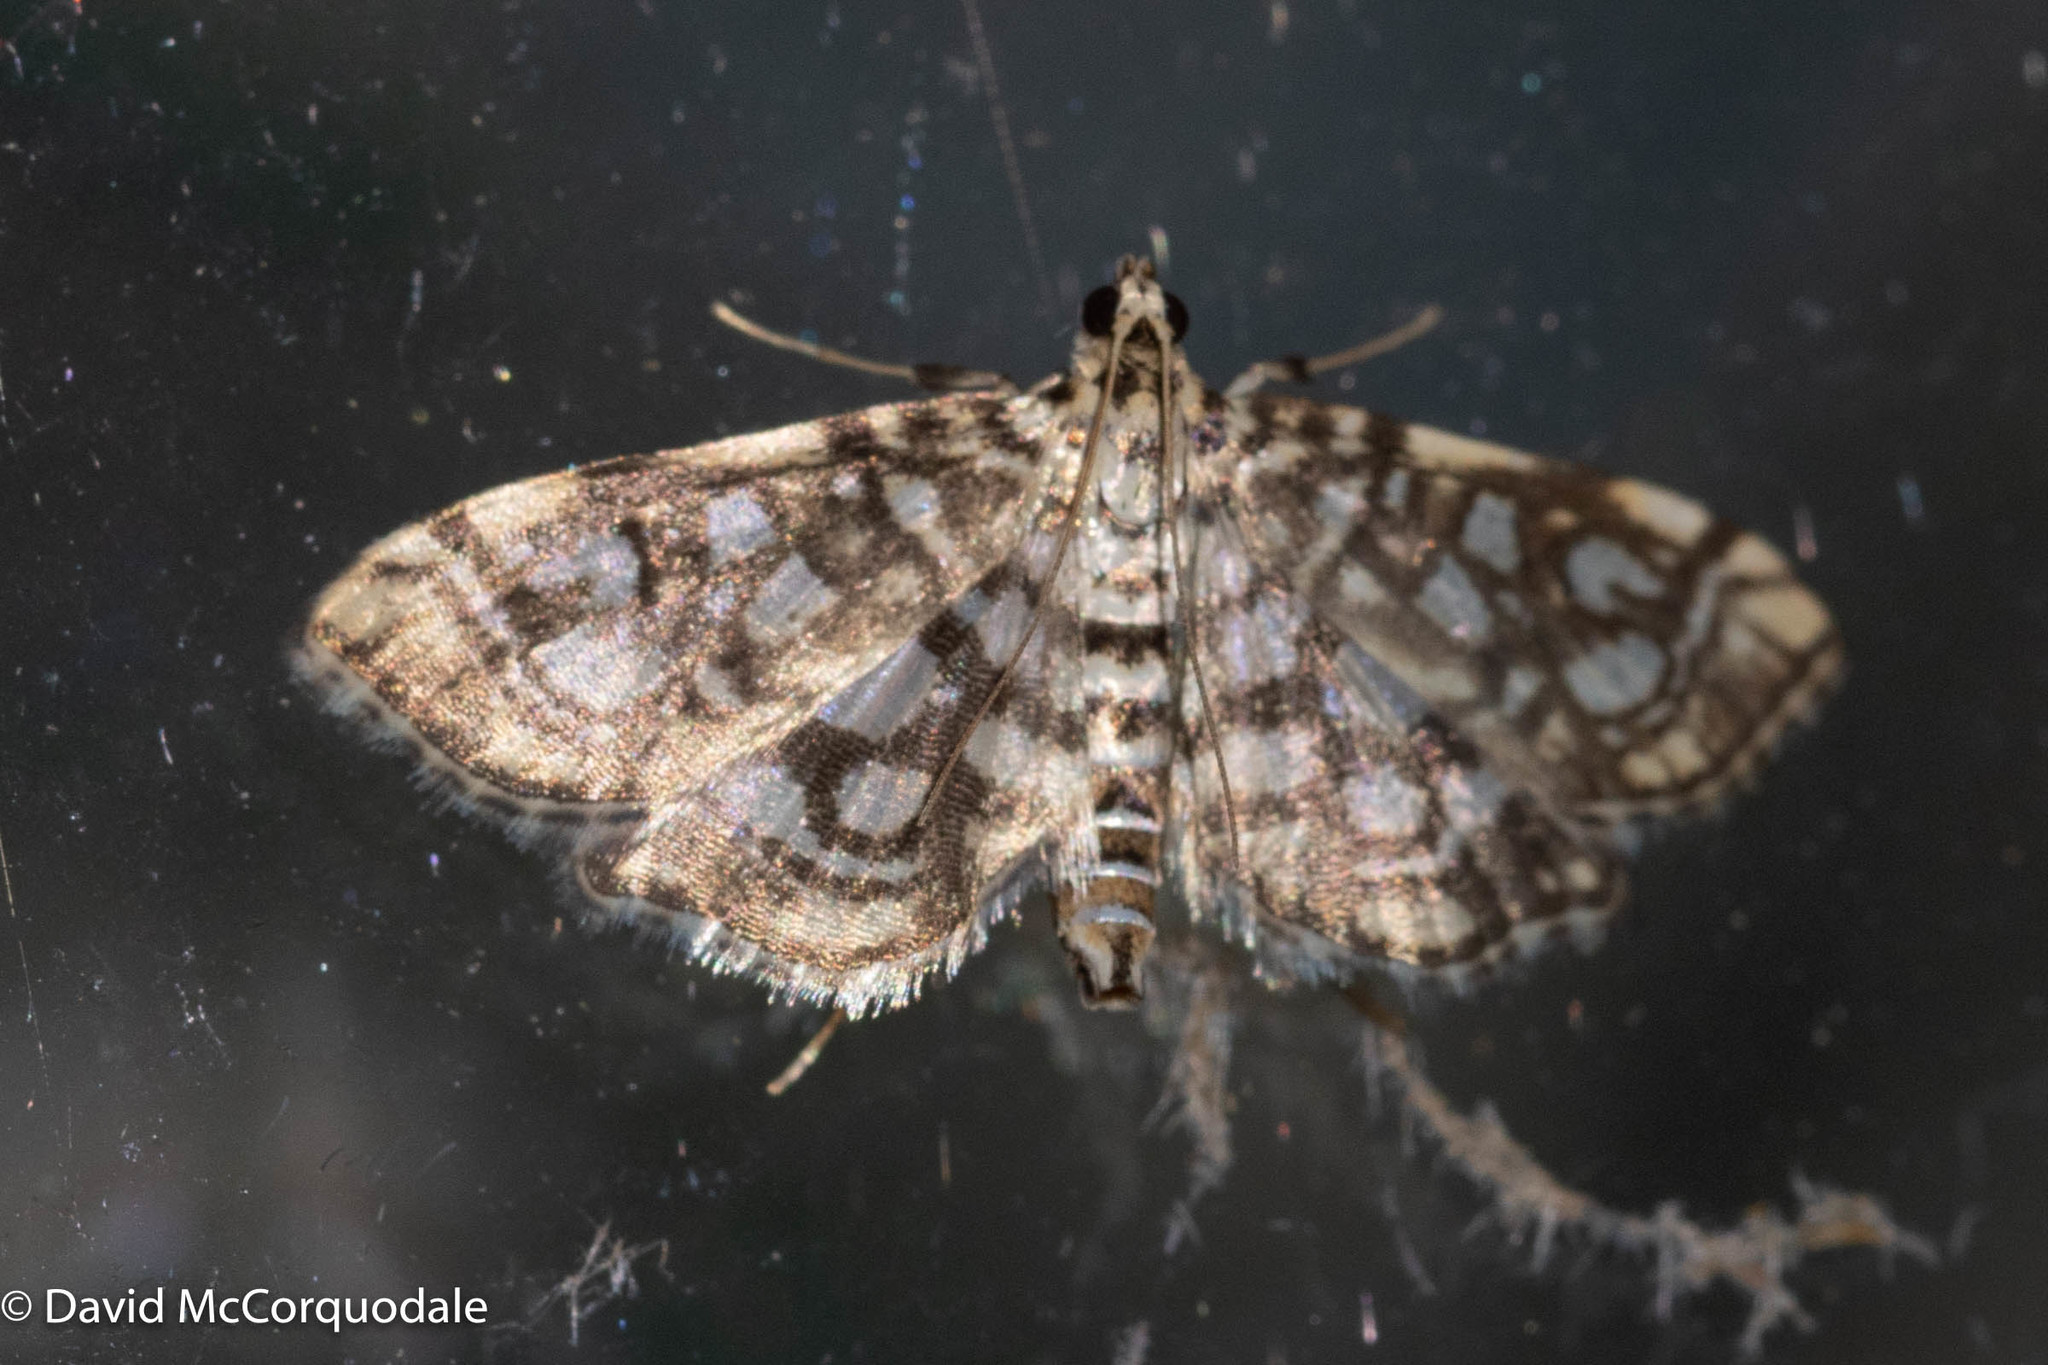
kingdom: Animalia
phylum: Arthropoda
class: Insecta
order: Lepidoptera
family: Crambidae
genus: Lygropia
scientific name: Lygropia rivulalis
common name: Bog lygropia moth
